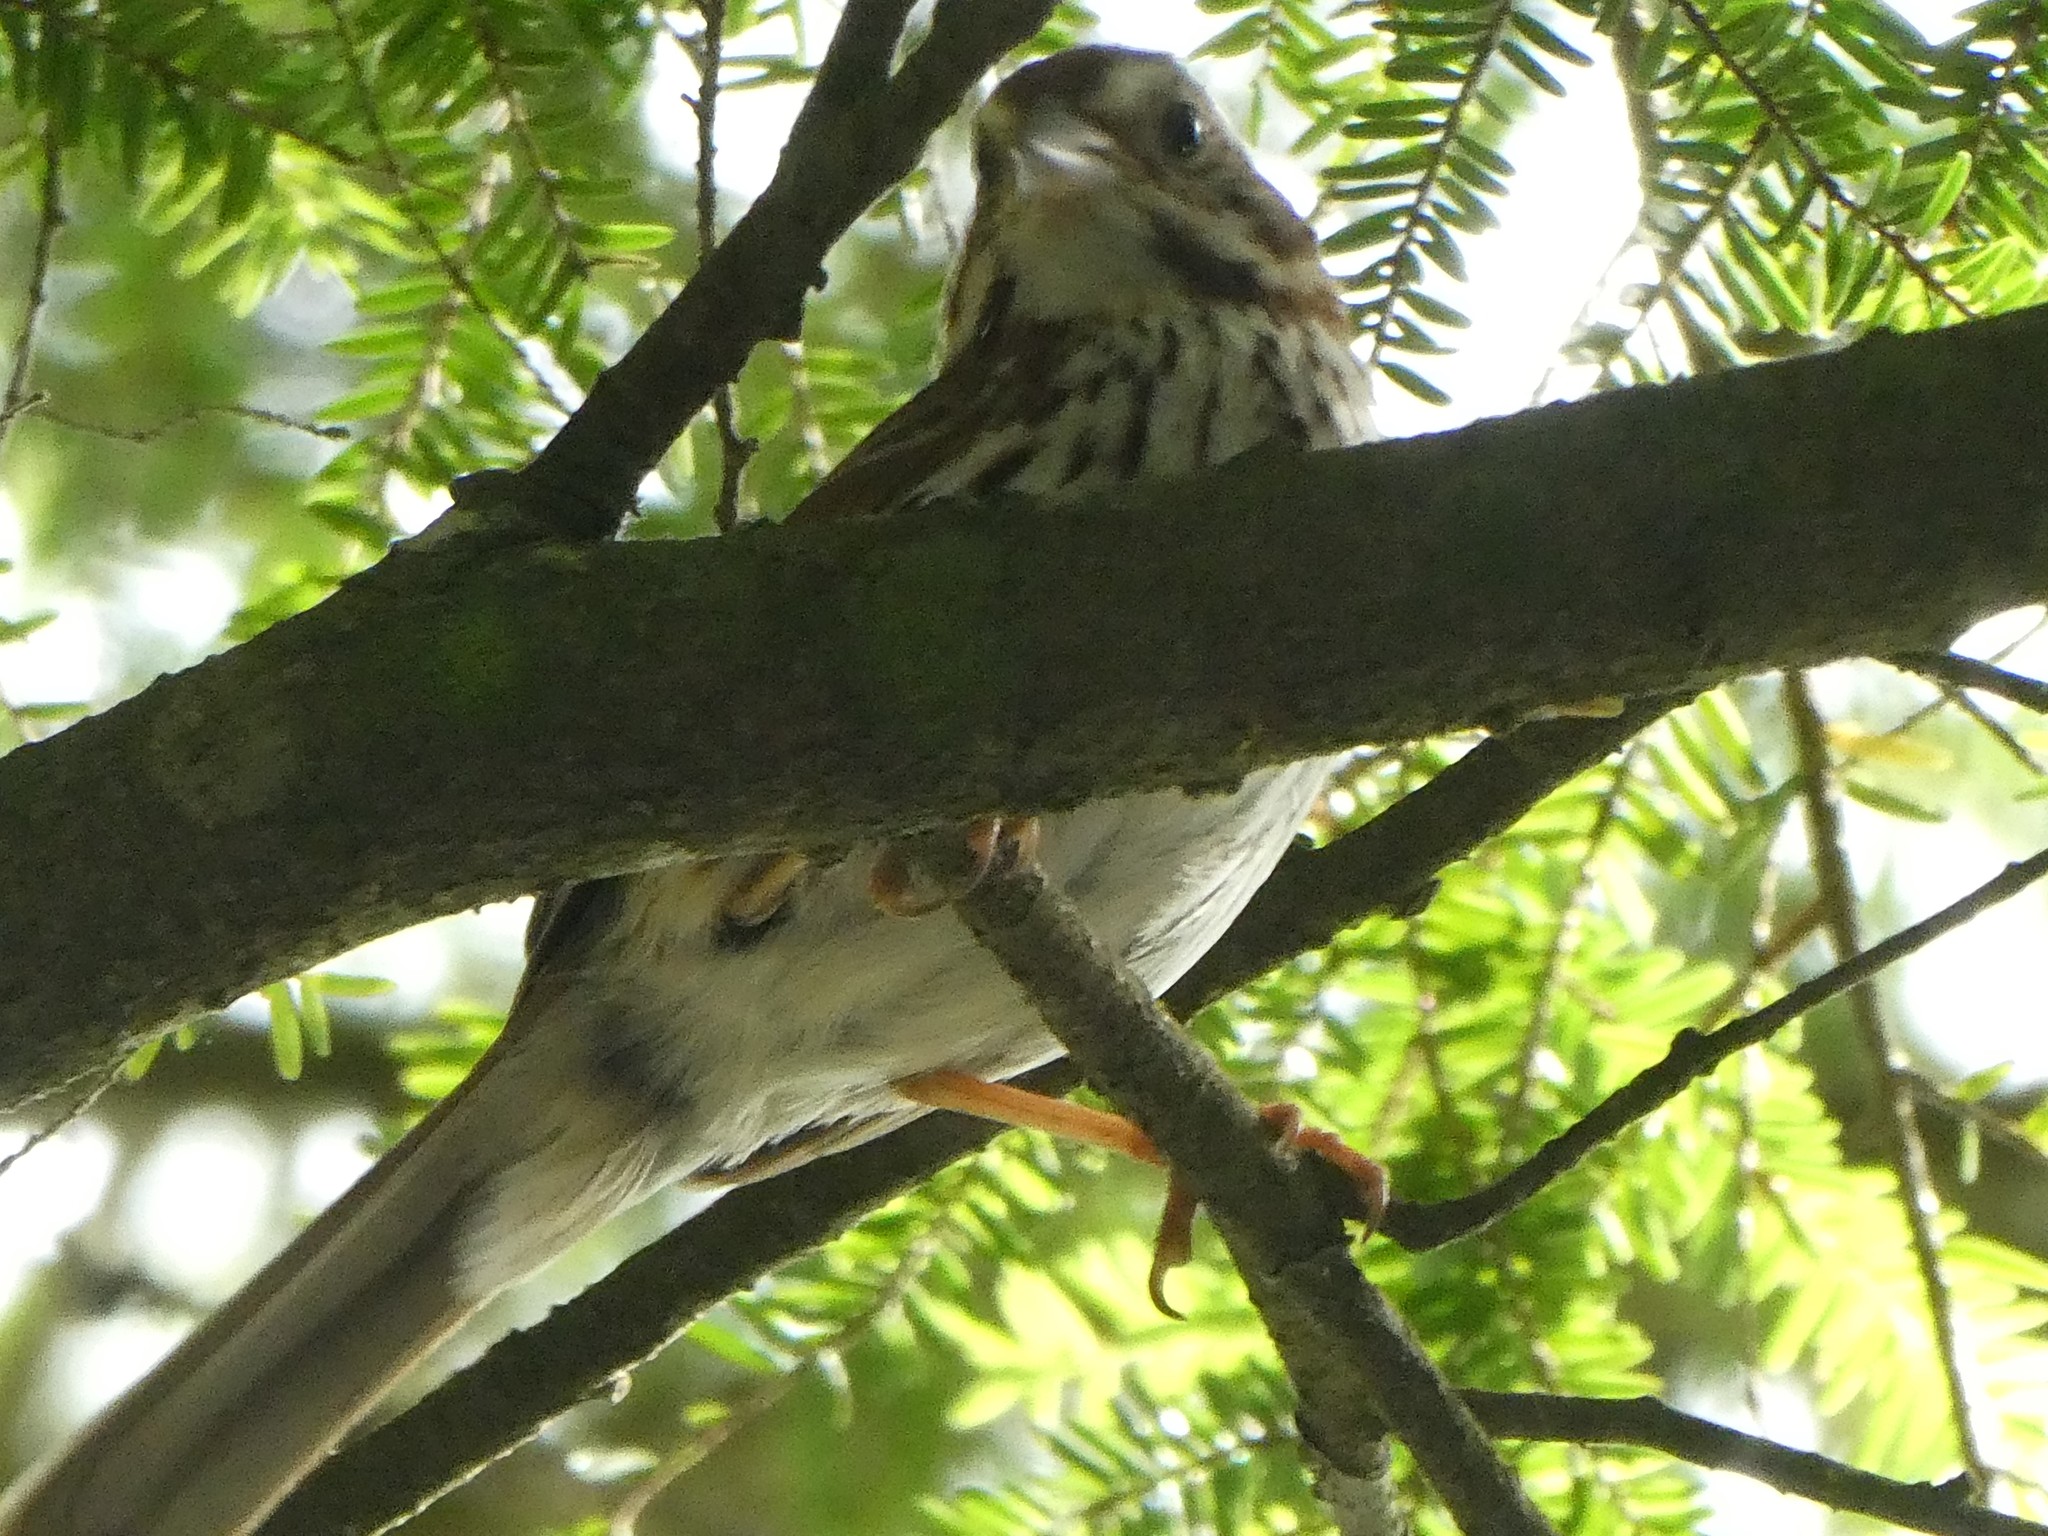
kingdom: Animalia
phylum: Chordata
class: Aves
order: Passeriformes
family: Passerellidae
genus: Melospiza
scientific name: Melospiza melodia
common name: Song sparrow
